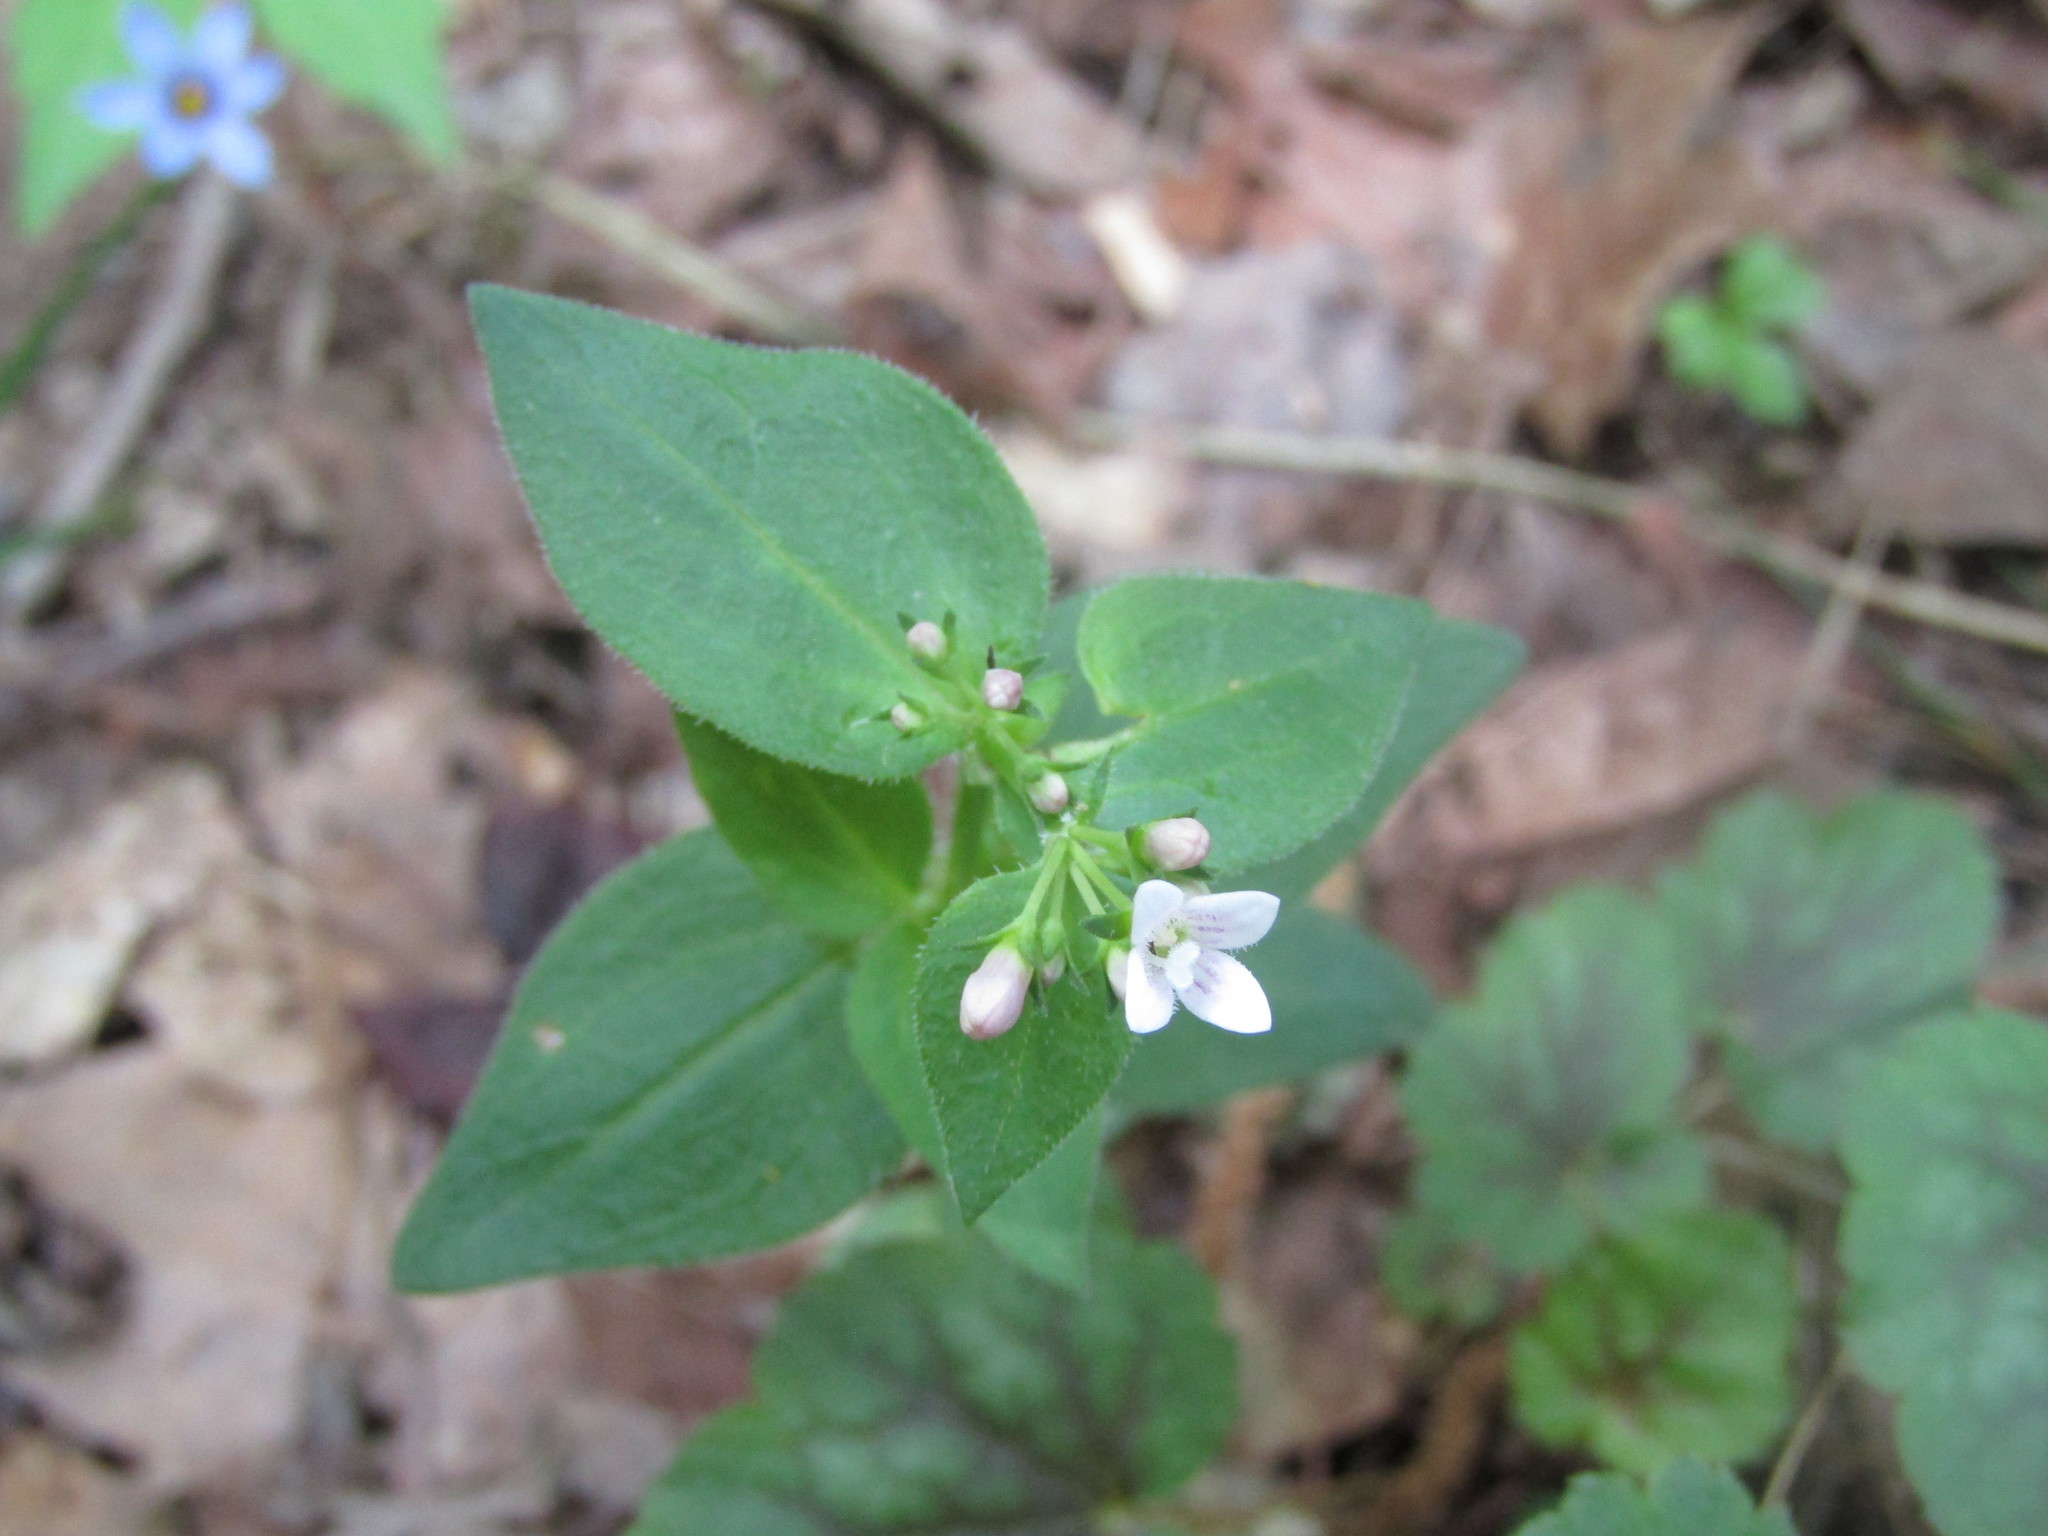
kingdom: Plantae
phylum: Tracheophyta
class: Magnoliopsida
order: Gentianales
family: Rubiaceae
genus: Houstonia
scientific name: Houstonia purpurea
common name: Summer bluet
